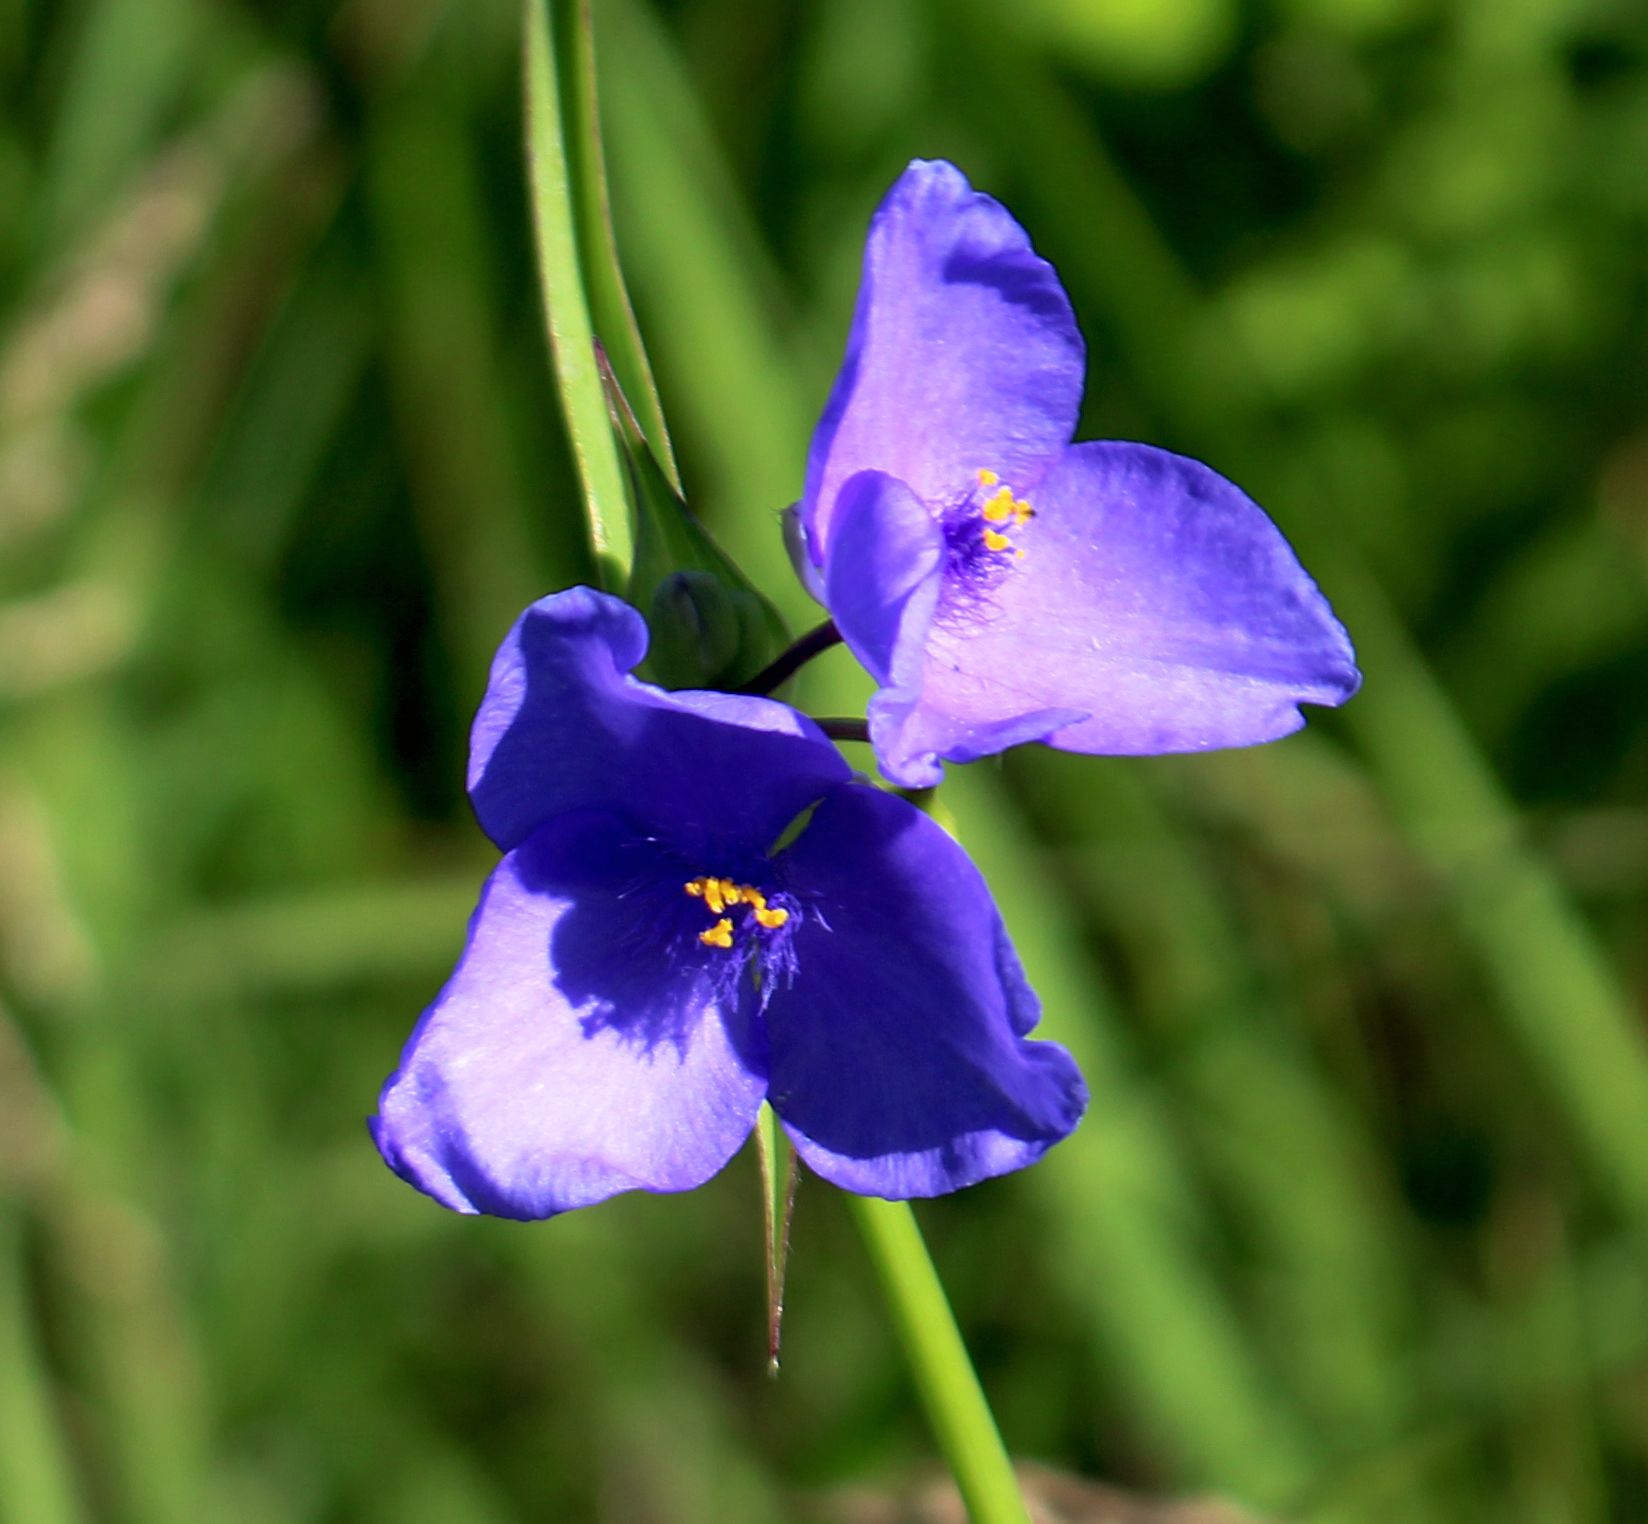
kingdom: Plantae
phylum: Tracheophyta
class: Liliopsida
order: Commelinales
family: Commelinaceae
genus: Tradescantia
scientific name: Tradescantia ohiensis
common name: Ohio spiderwort
